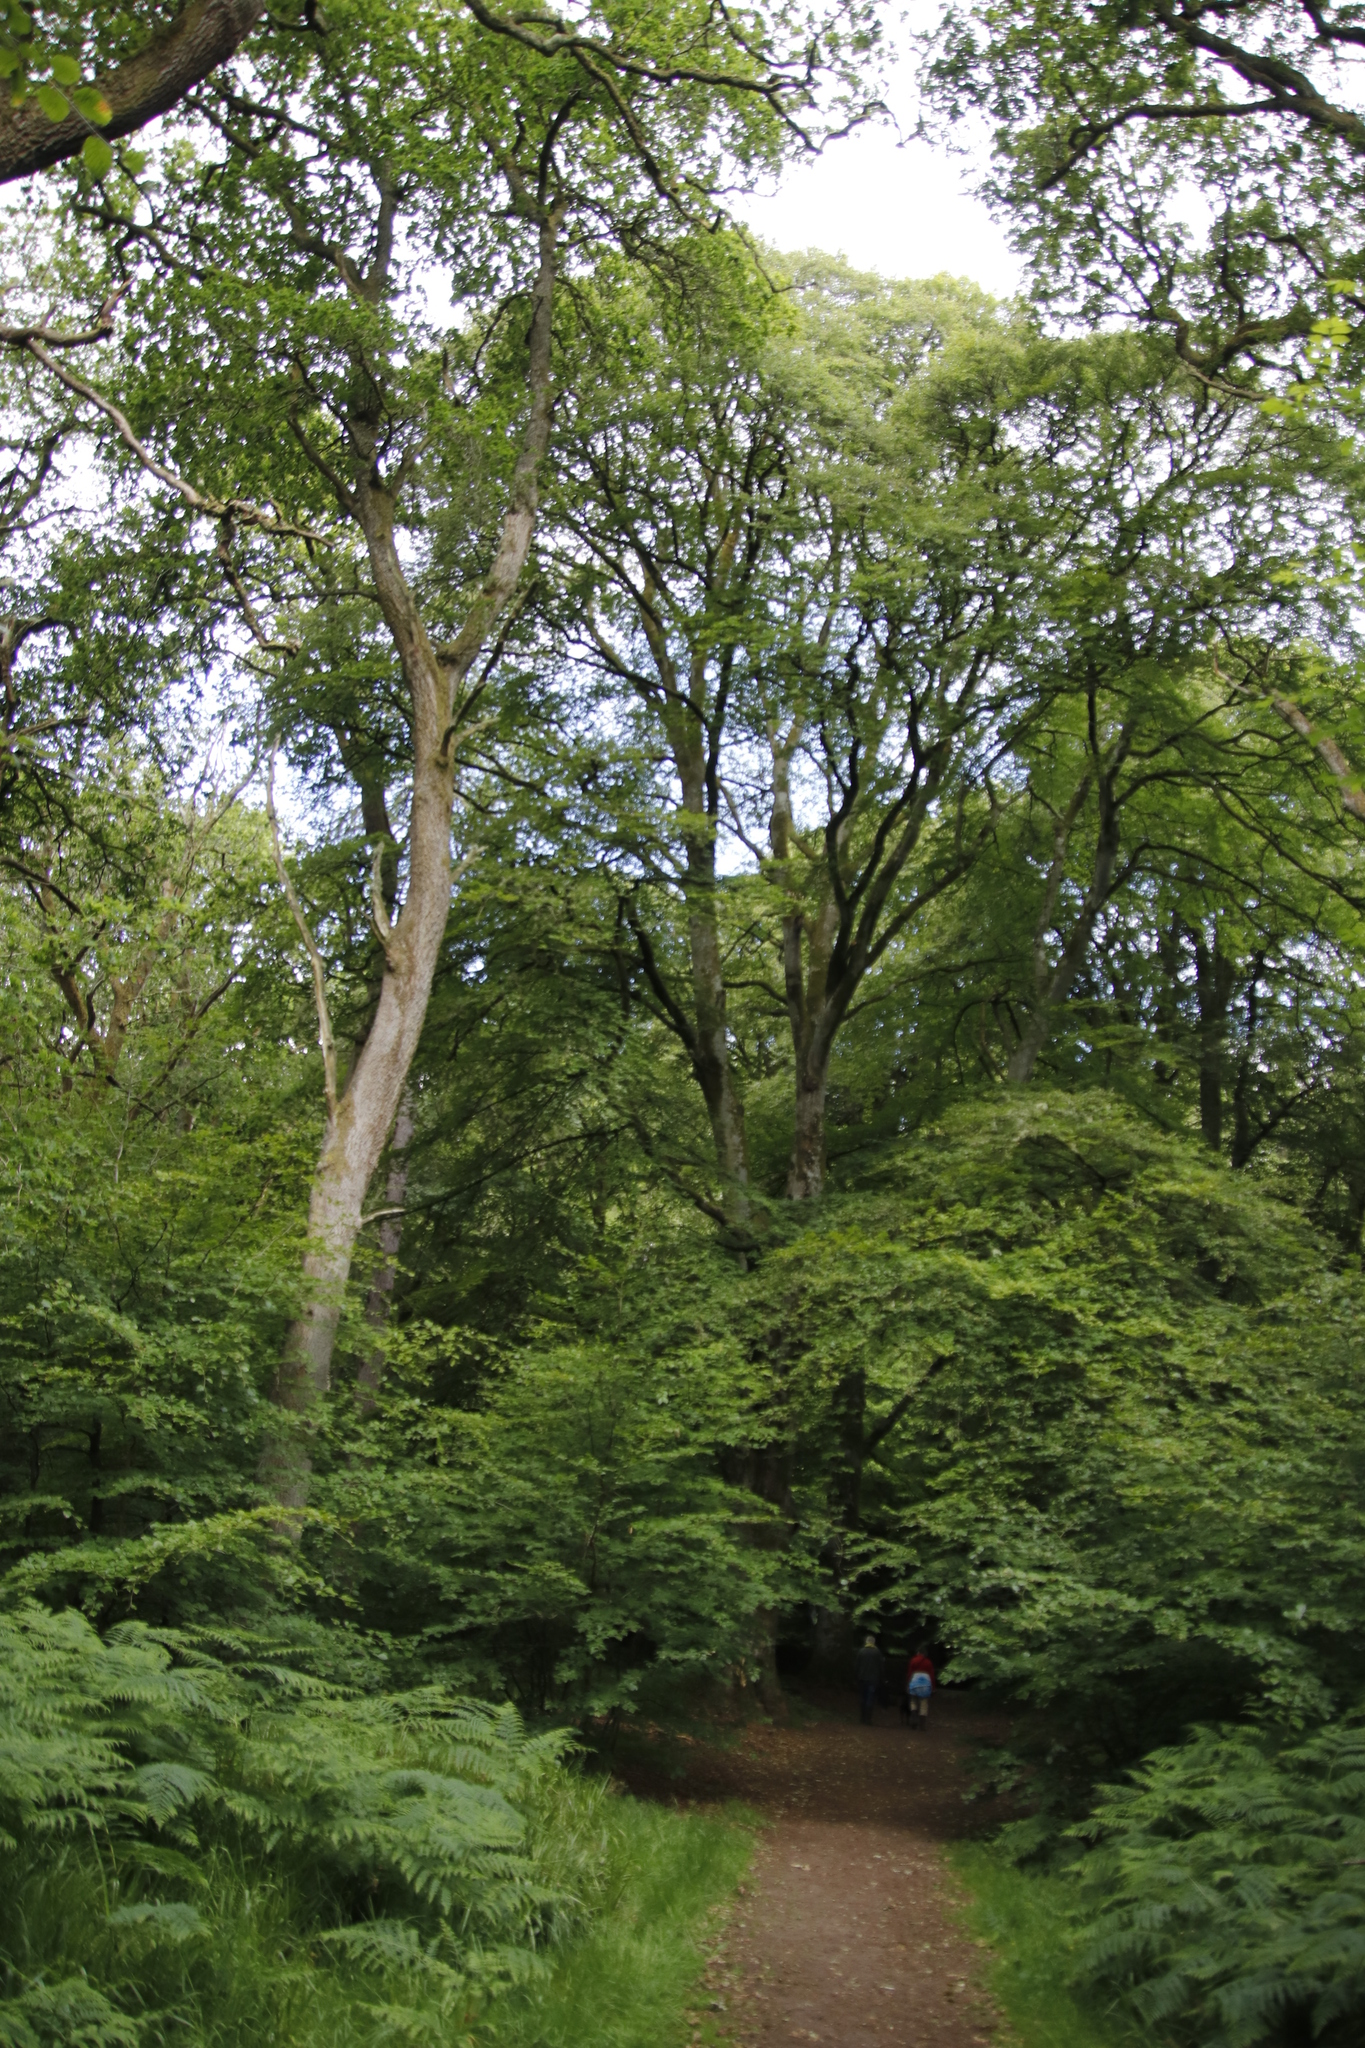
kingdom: Plantae
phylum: Tracheophyta
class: Magnoliopsida
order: Fagales
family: Fagaceae
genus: Fagus
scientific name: Fagus sylvatica
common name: Beech
